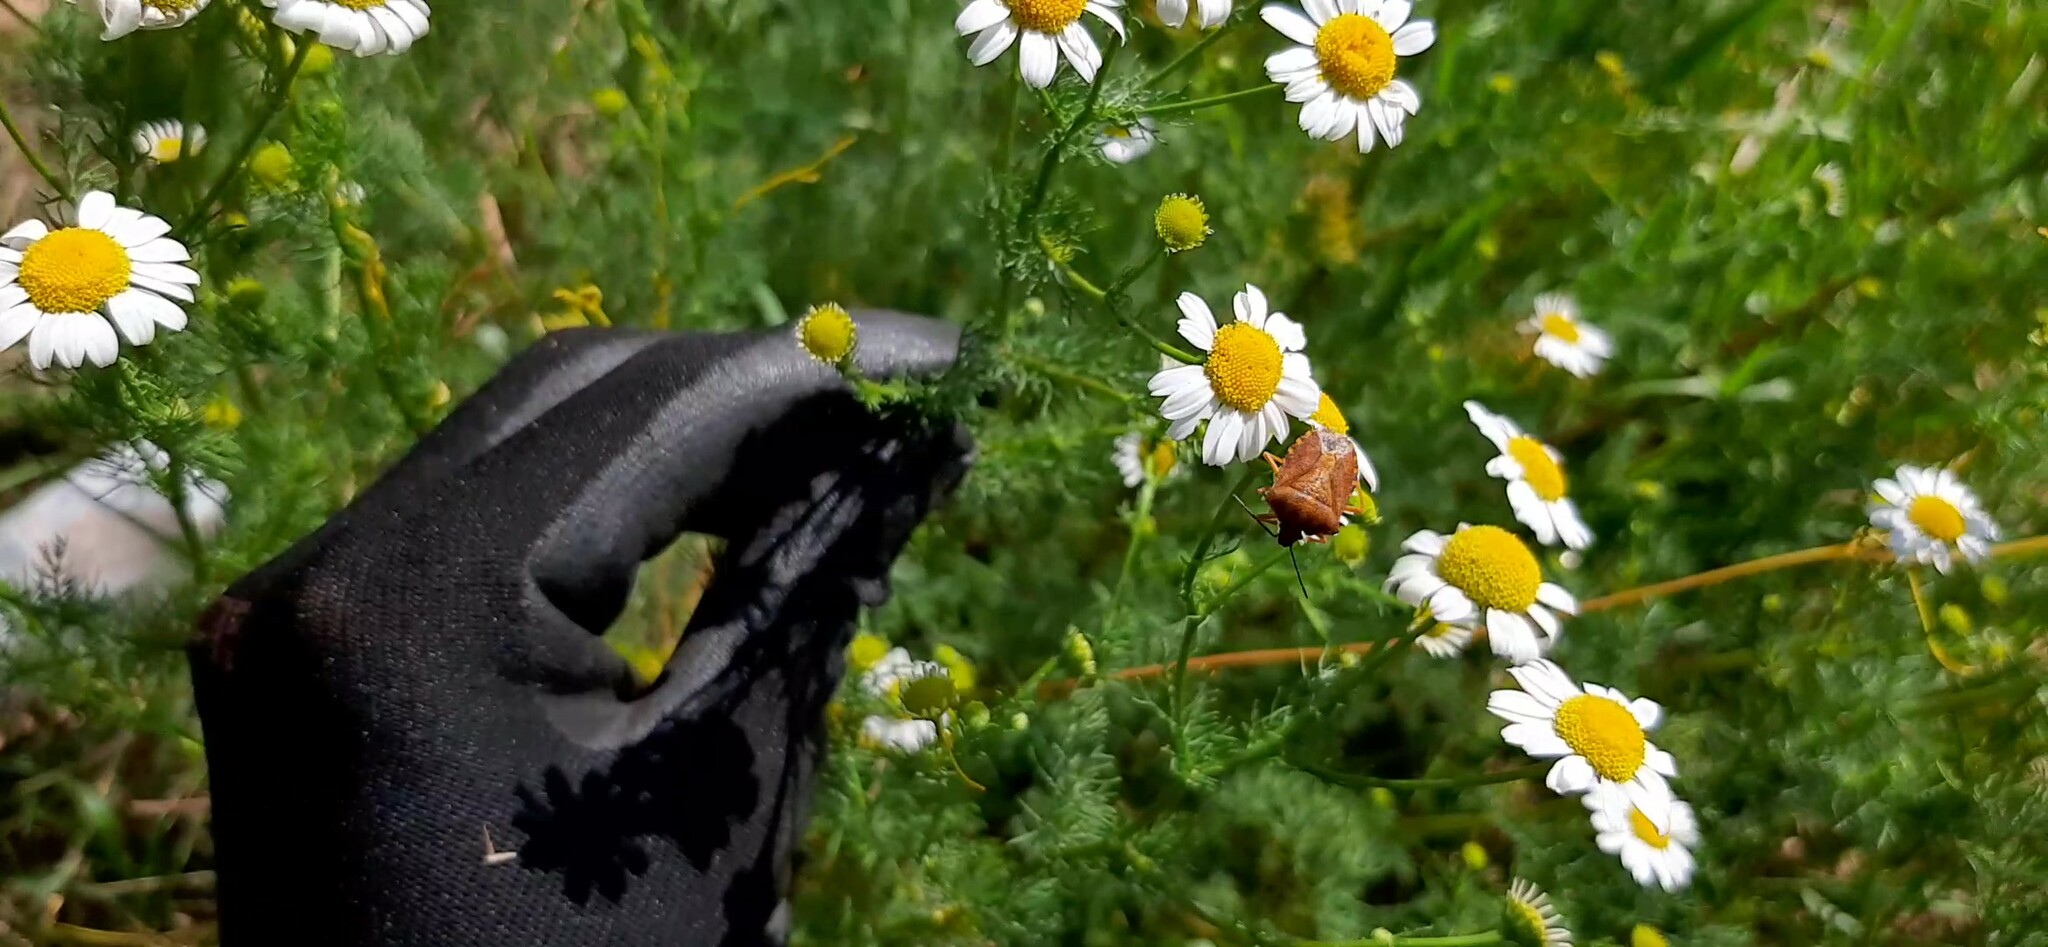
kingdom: Animalia
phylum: Arthropoda
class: Insecta
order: Hemiptera
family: Pentatomidae
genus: Carpocoris
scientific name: Carpocoris purpureipennis
